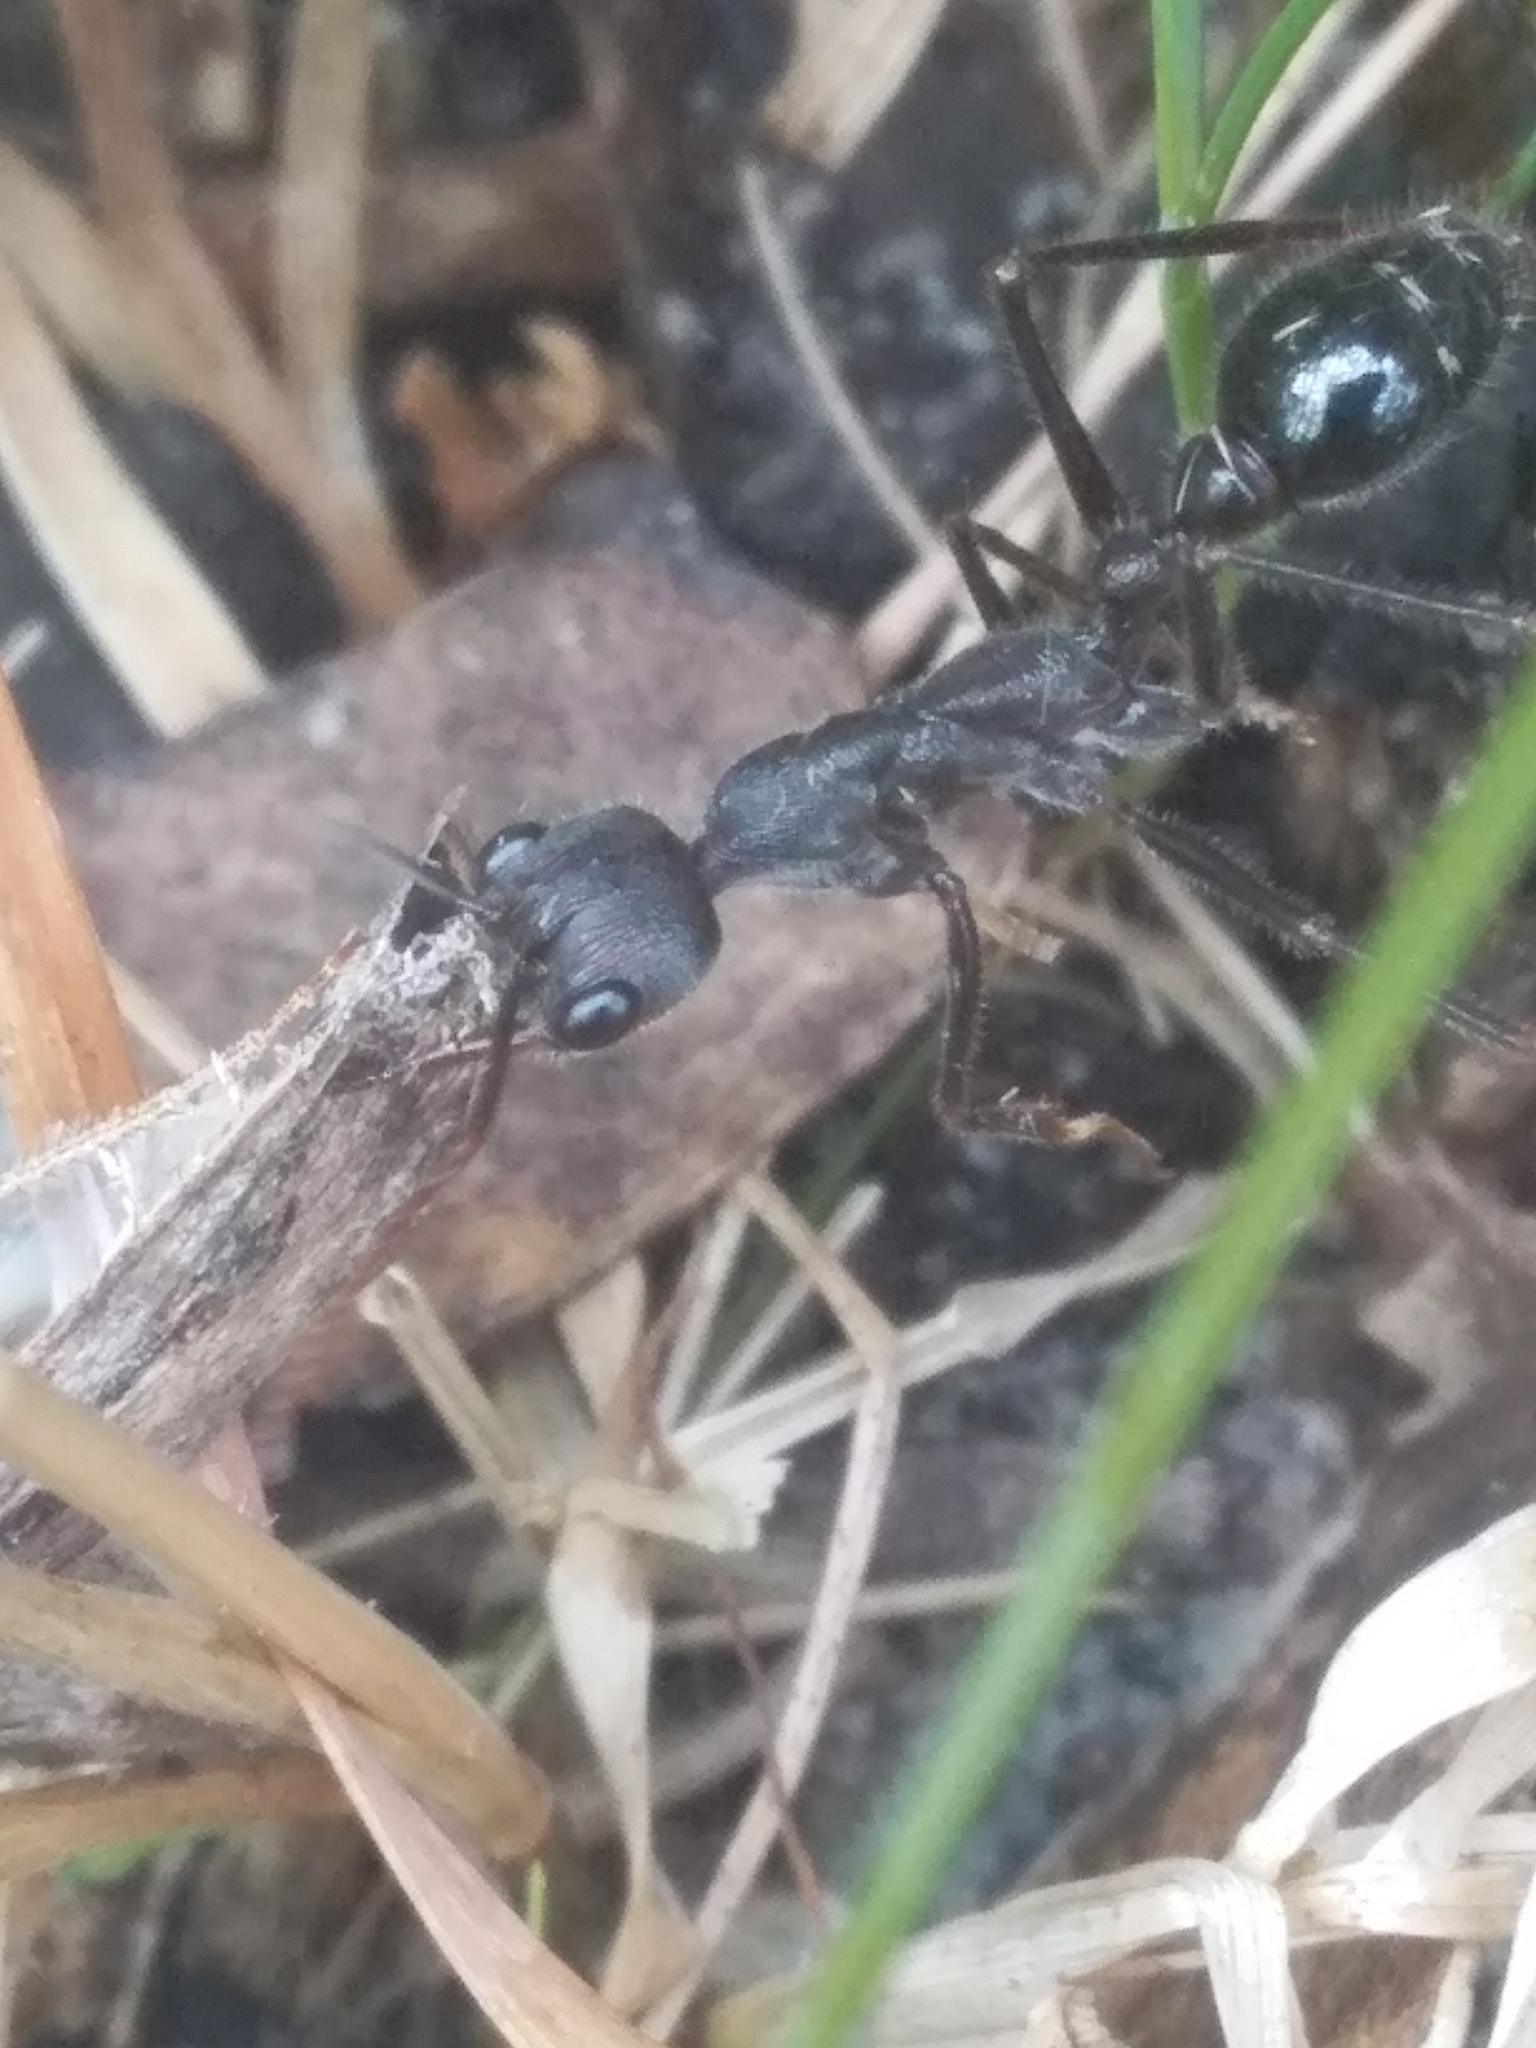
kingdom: Animalia
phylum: Arthropoda
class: Insecta
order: Hymenoptera
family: Formicidae
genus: Myrmecia
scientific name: Myrmecia pyriformis
